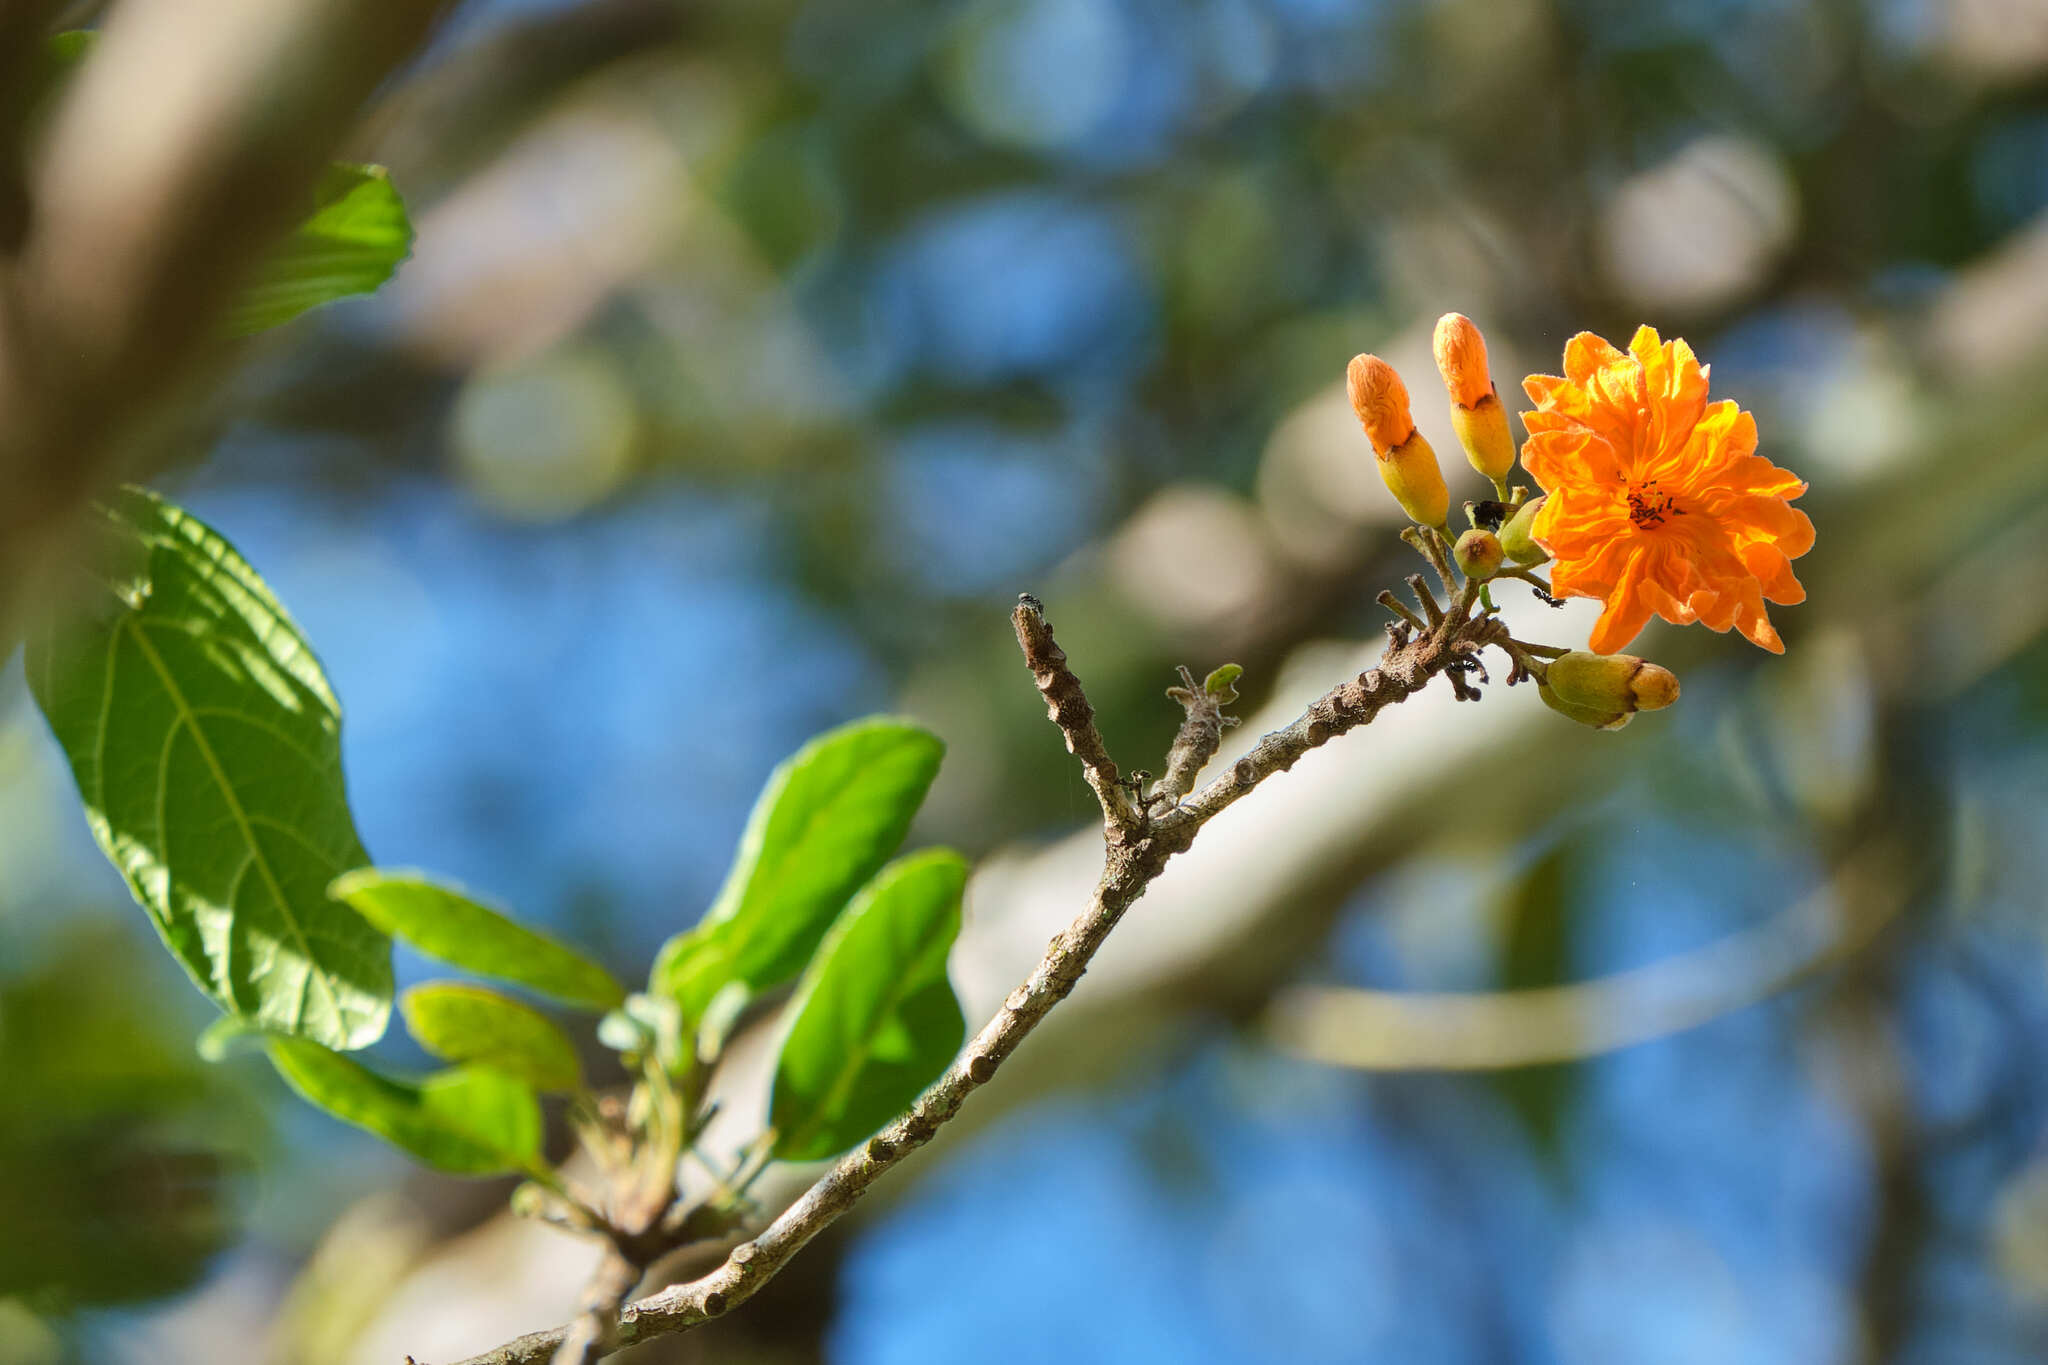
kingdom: Plantae
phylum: Tracheophyta
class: Magnoliopsida
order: Boraginales
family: Cordiaceae
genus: Cordia
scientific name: Cordia dodecandra
